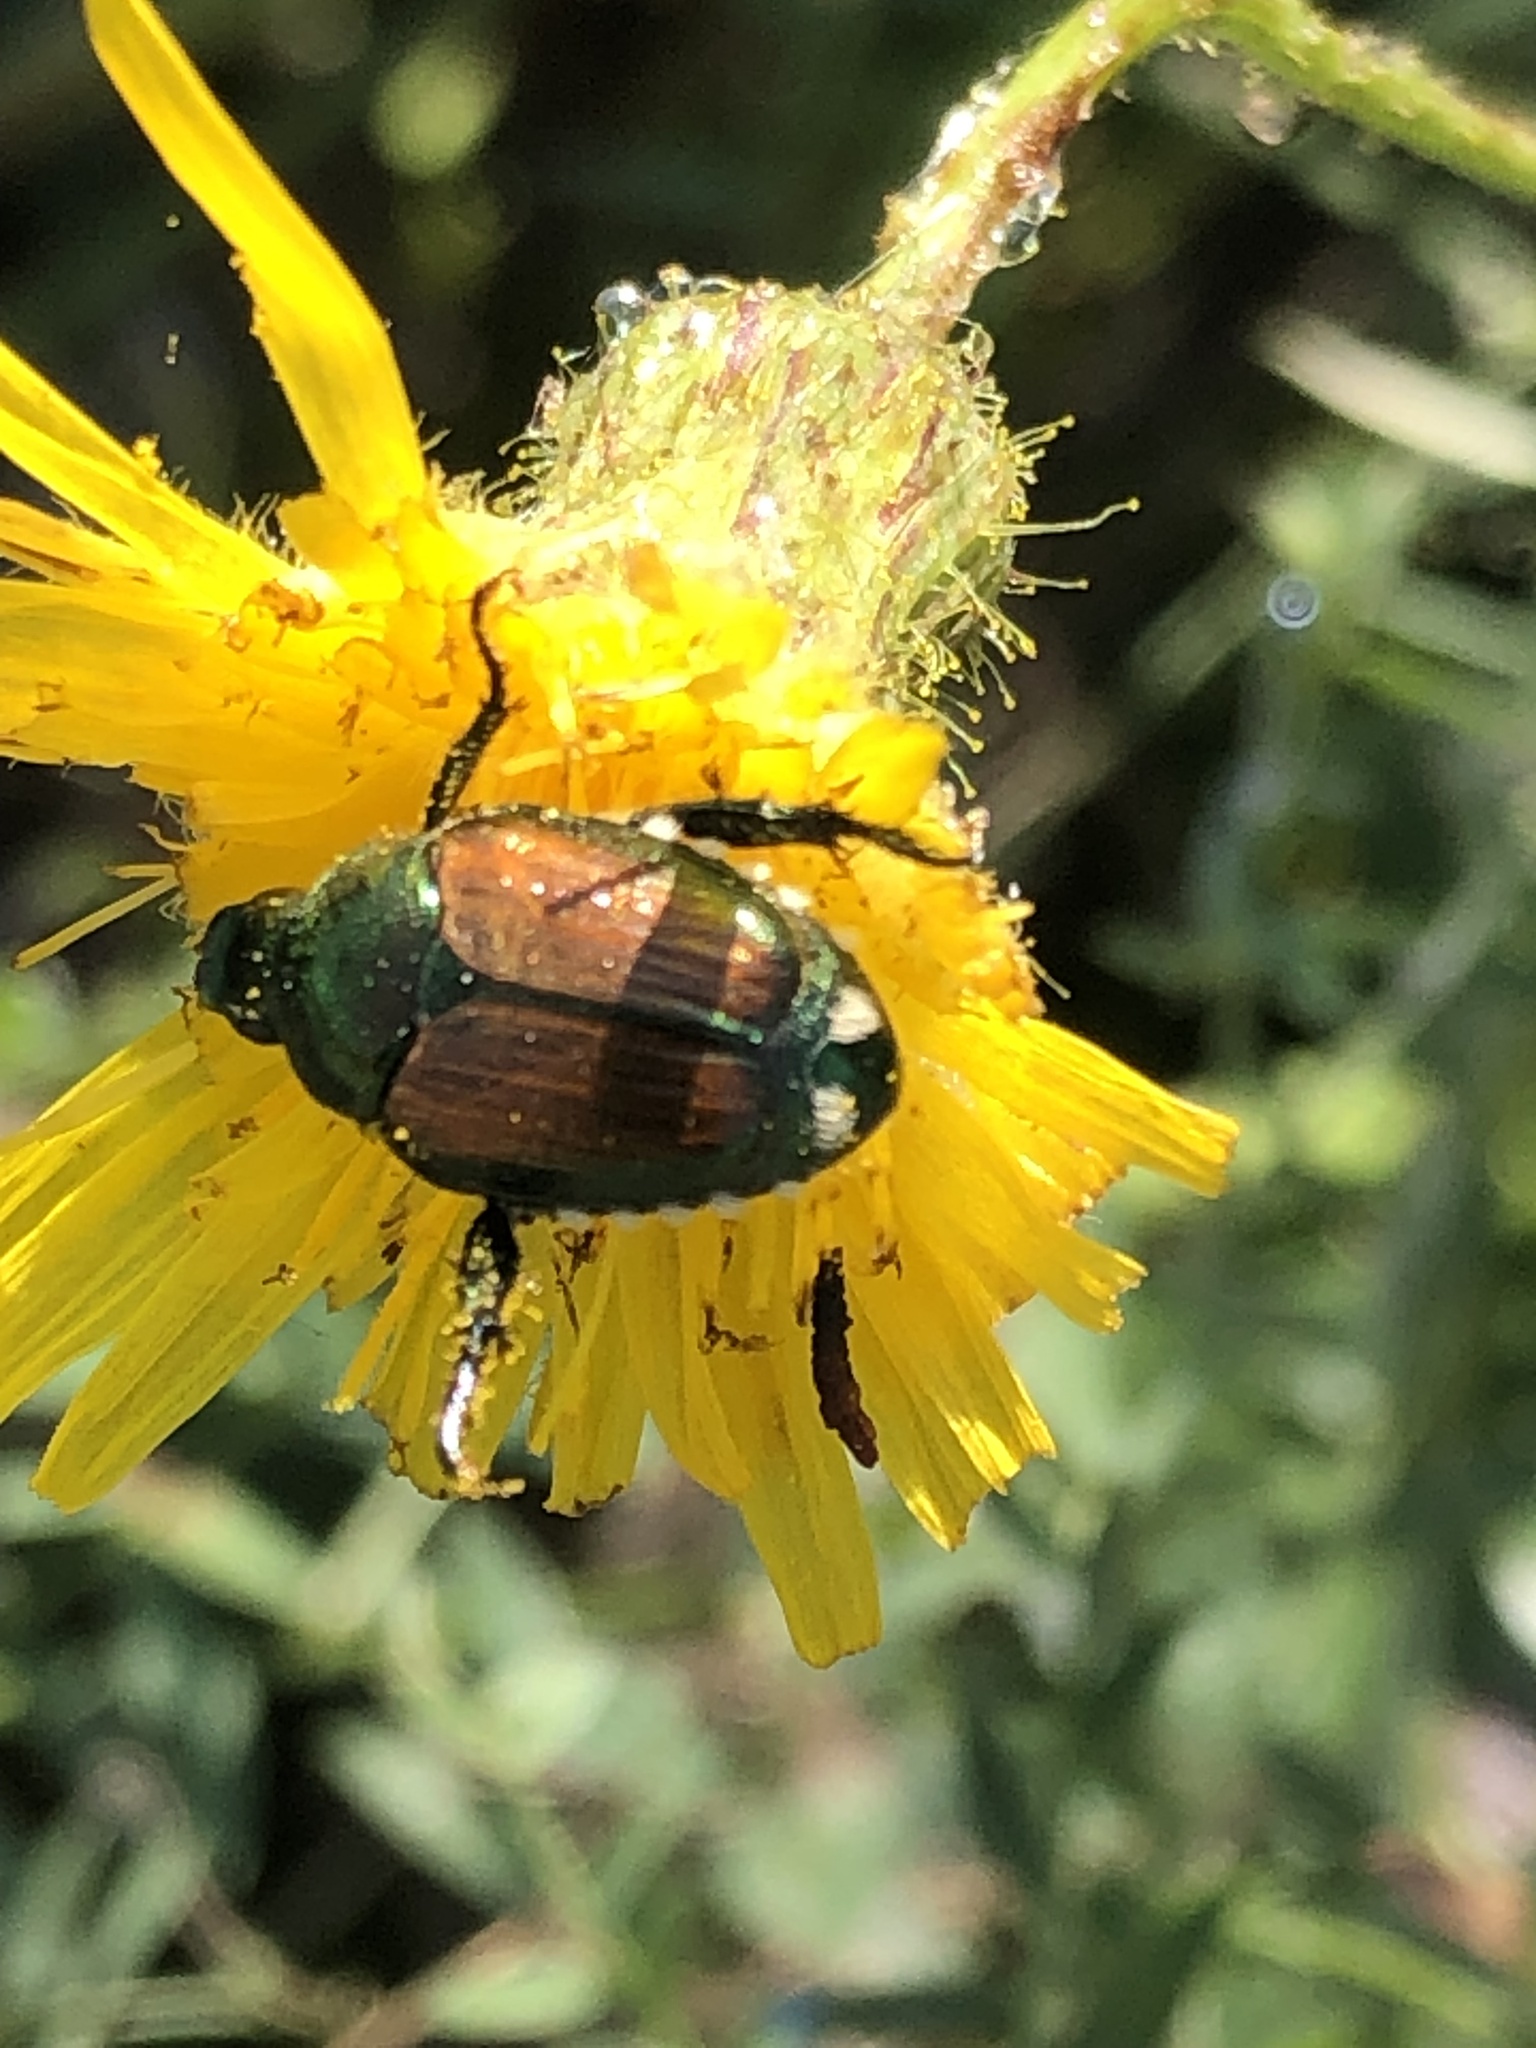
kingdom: Animalia
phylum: Arthropoda
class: Insecta
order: Coleoptera
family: Scarabaeidae
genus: Popillia
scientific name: Popillia japonica
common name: Japanese beetle
